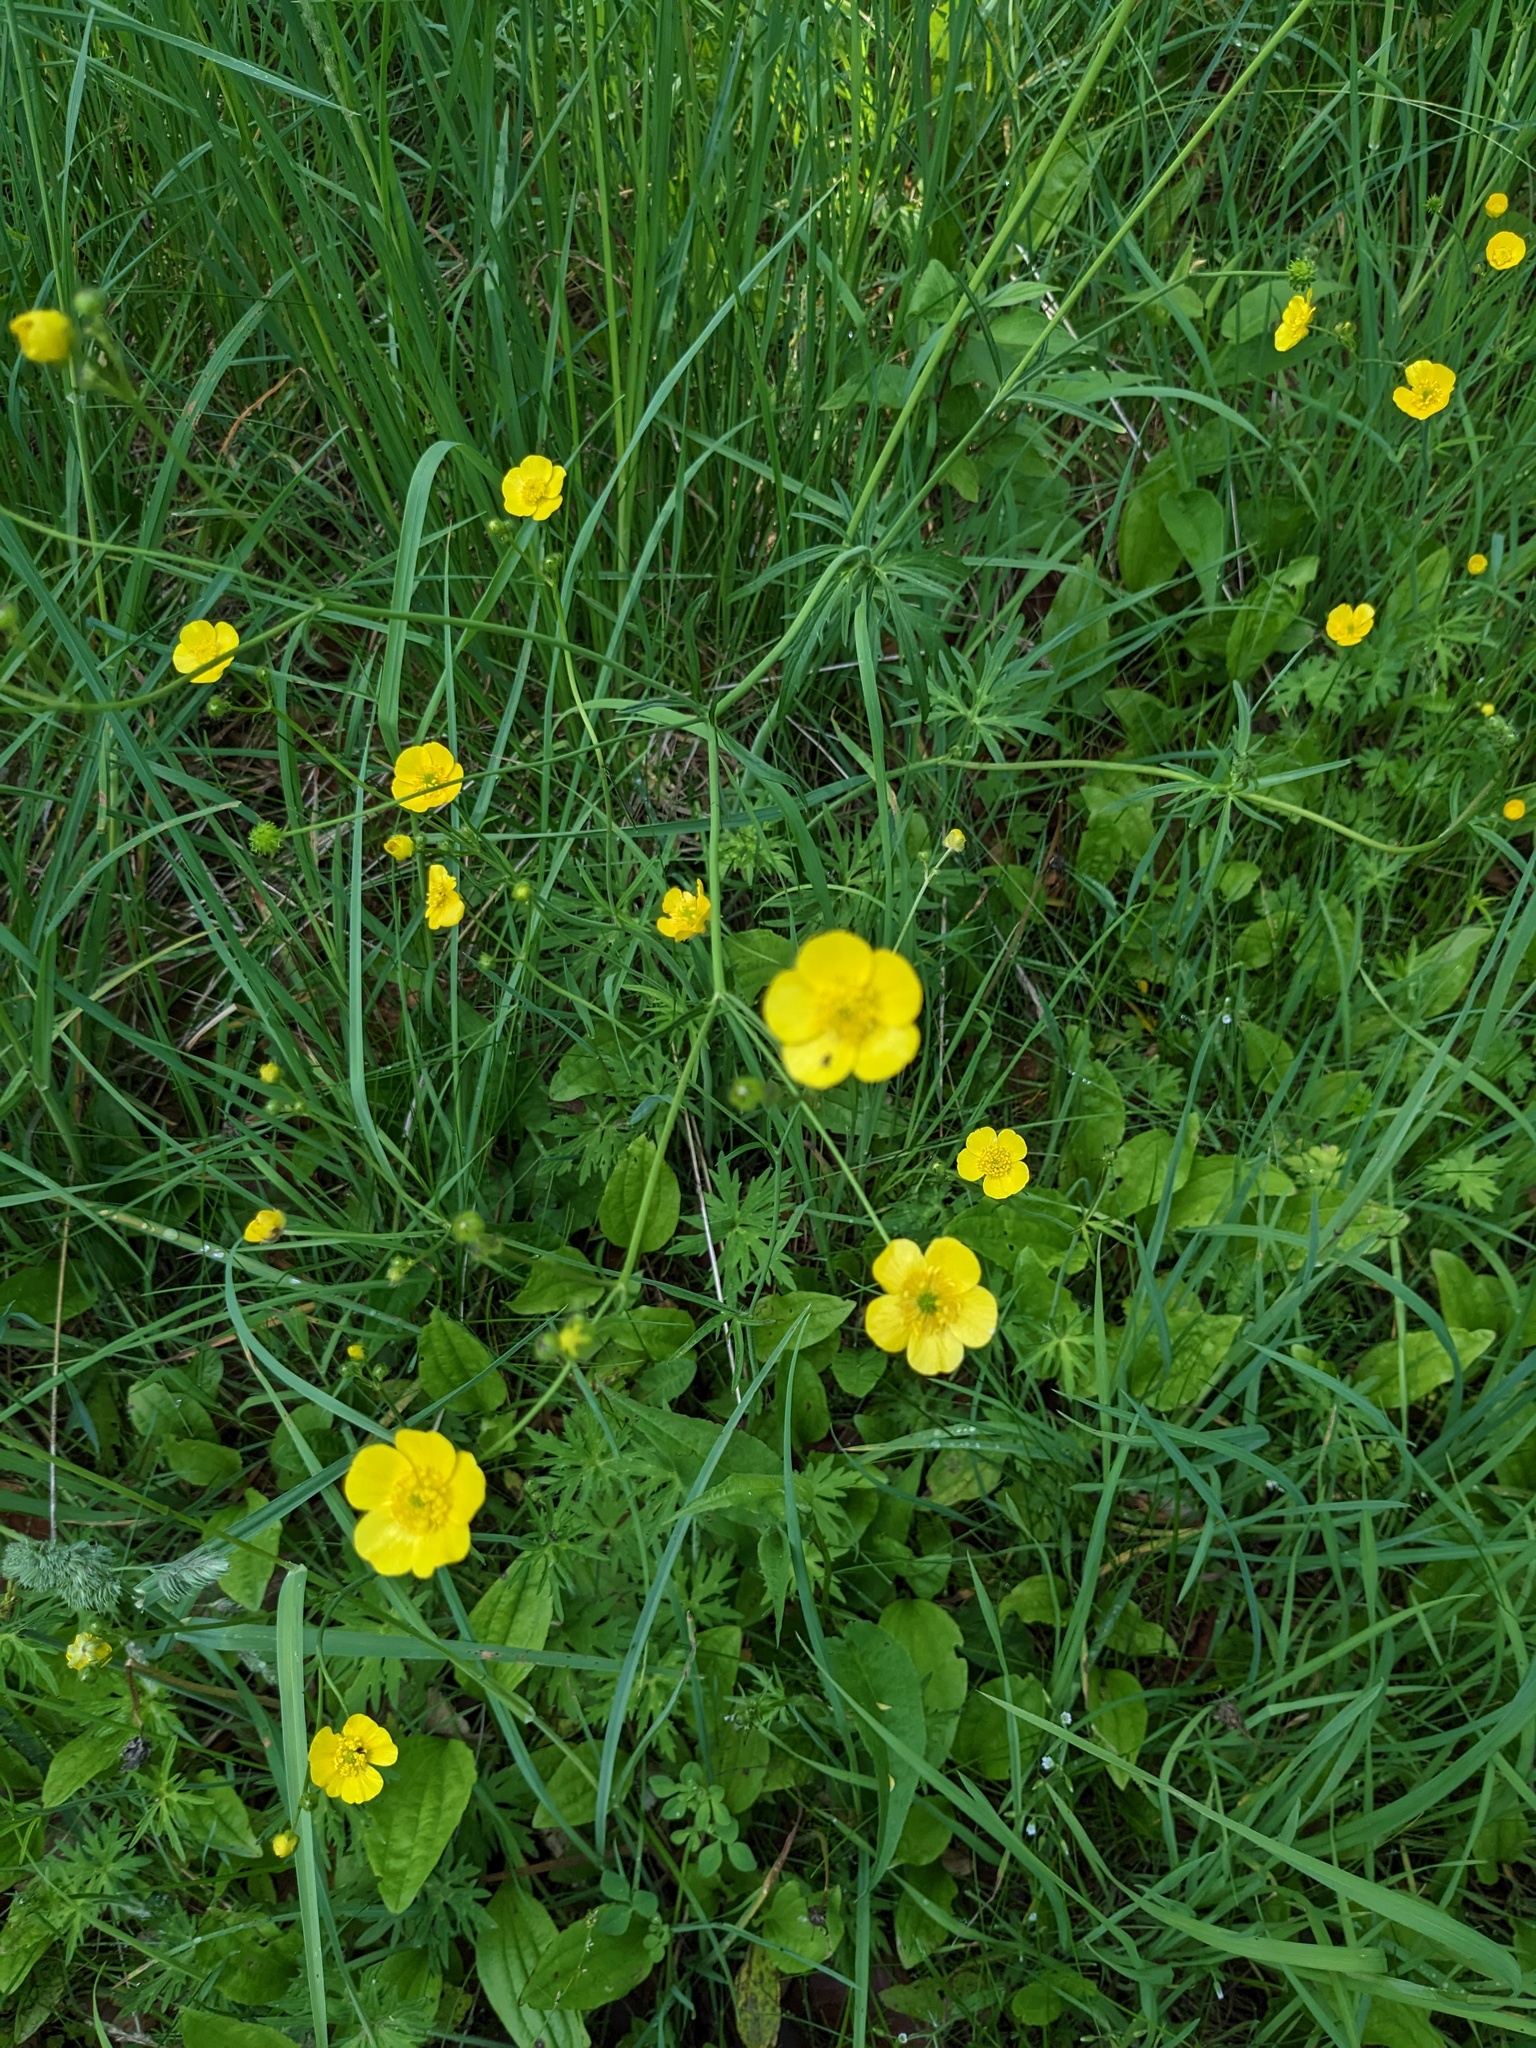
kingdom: Plantae
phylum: Tracheophyta
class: Magnoliopsida
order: Ranunculales
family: Ranunculaceae
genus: Ranunculus
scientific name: Ranunculus acris
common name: Meadow buttercup
